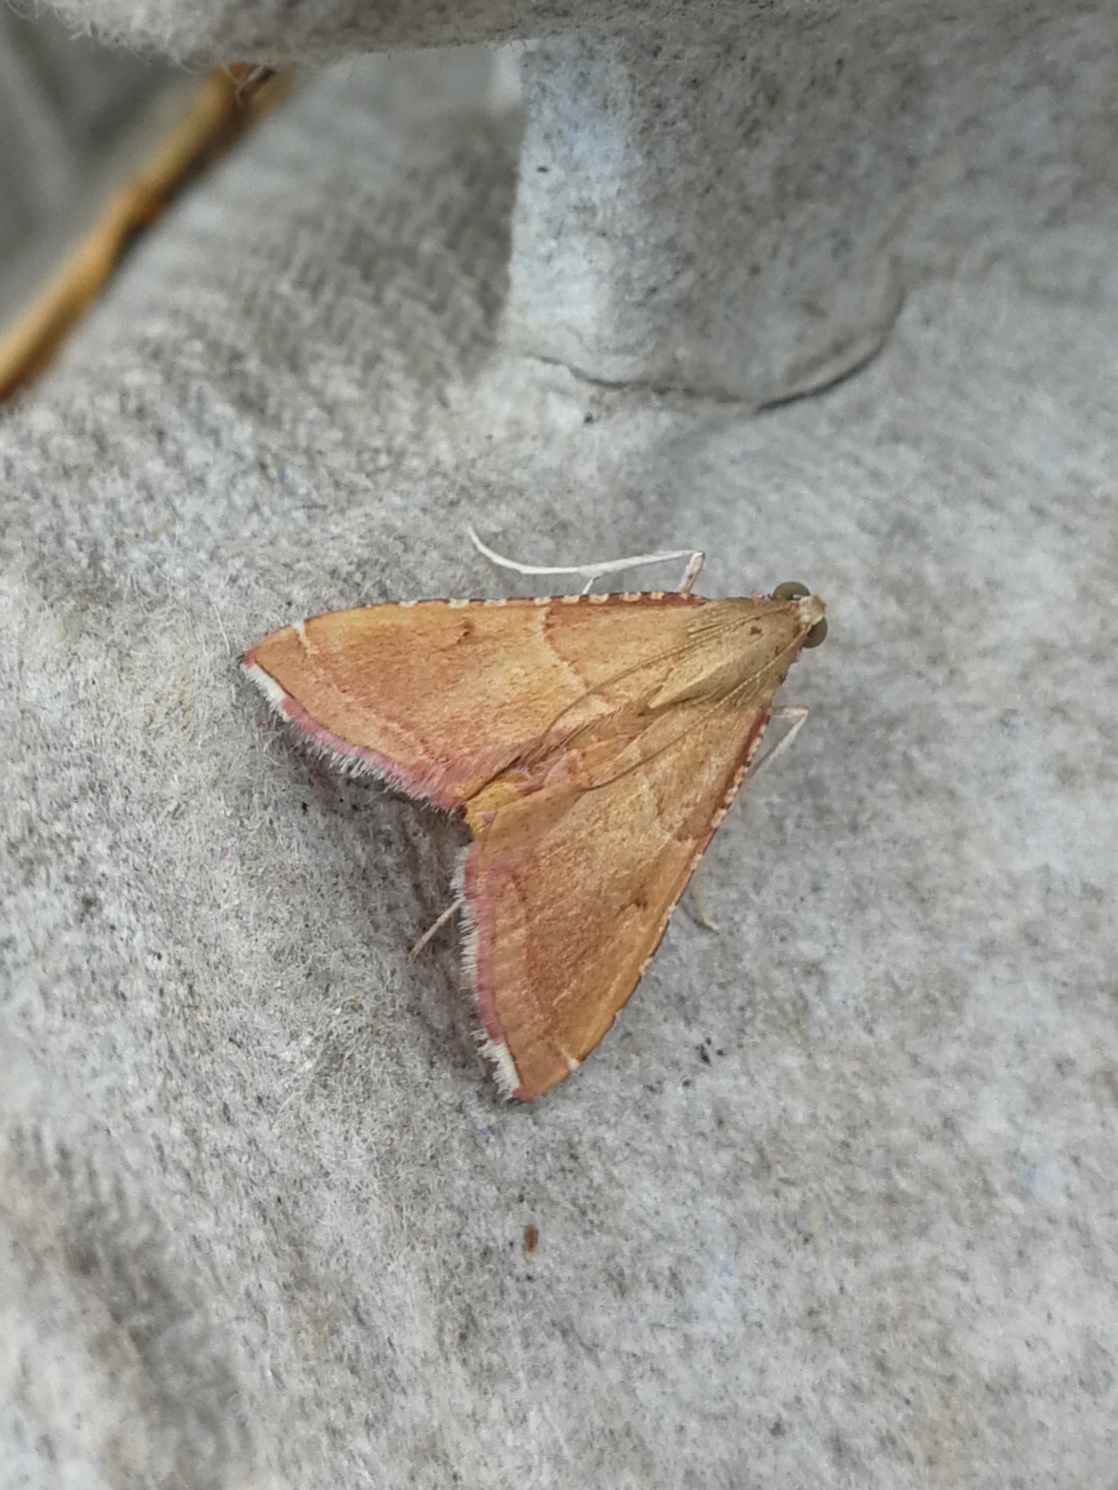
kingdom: Animalia
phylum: Arthropoda
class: Insecta
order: Lepidoptera
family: Pyralidae
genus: Endotricha
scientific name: Endotricha flammealis
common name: Rosy tabby
